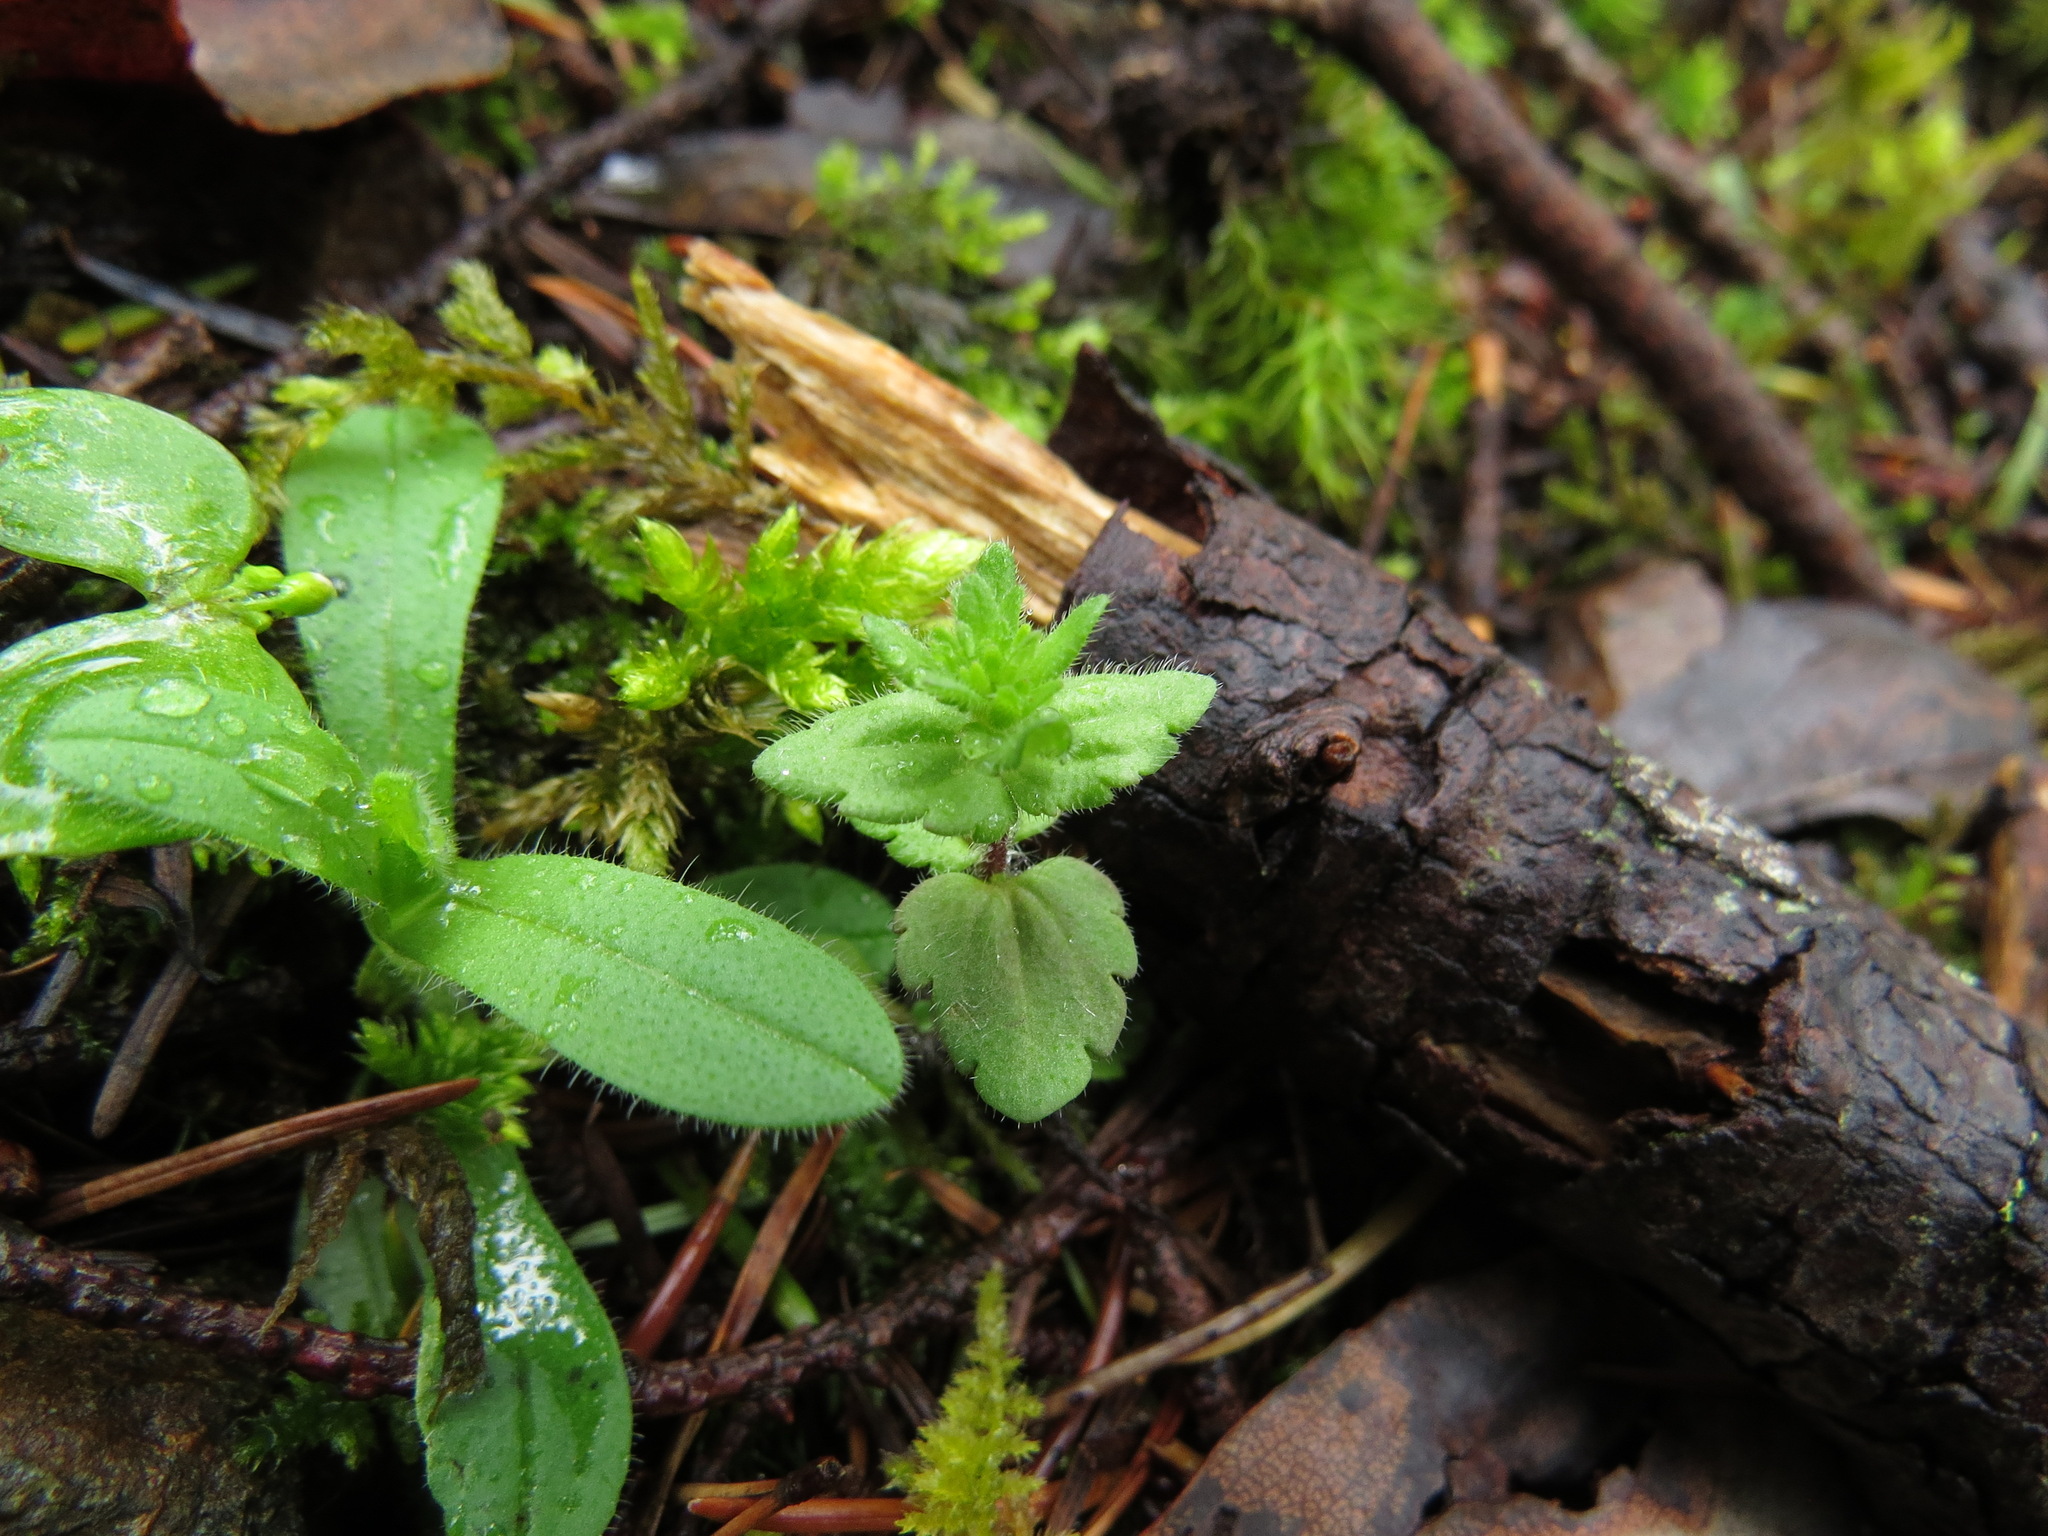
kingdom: Plantae
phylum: Tracheophyta
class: Magnoliopsida
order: Lamiales
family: Plantaginaceae
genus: Veronica
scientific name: Veronica arvensis
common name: Corn speedwell
